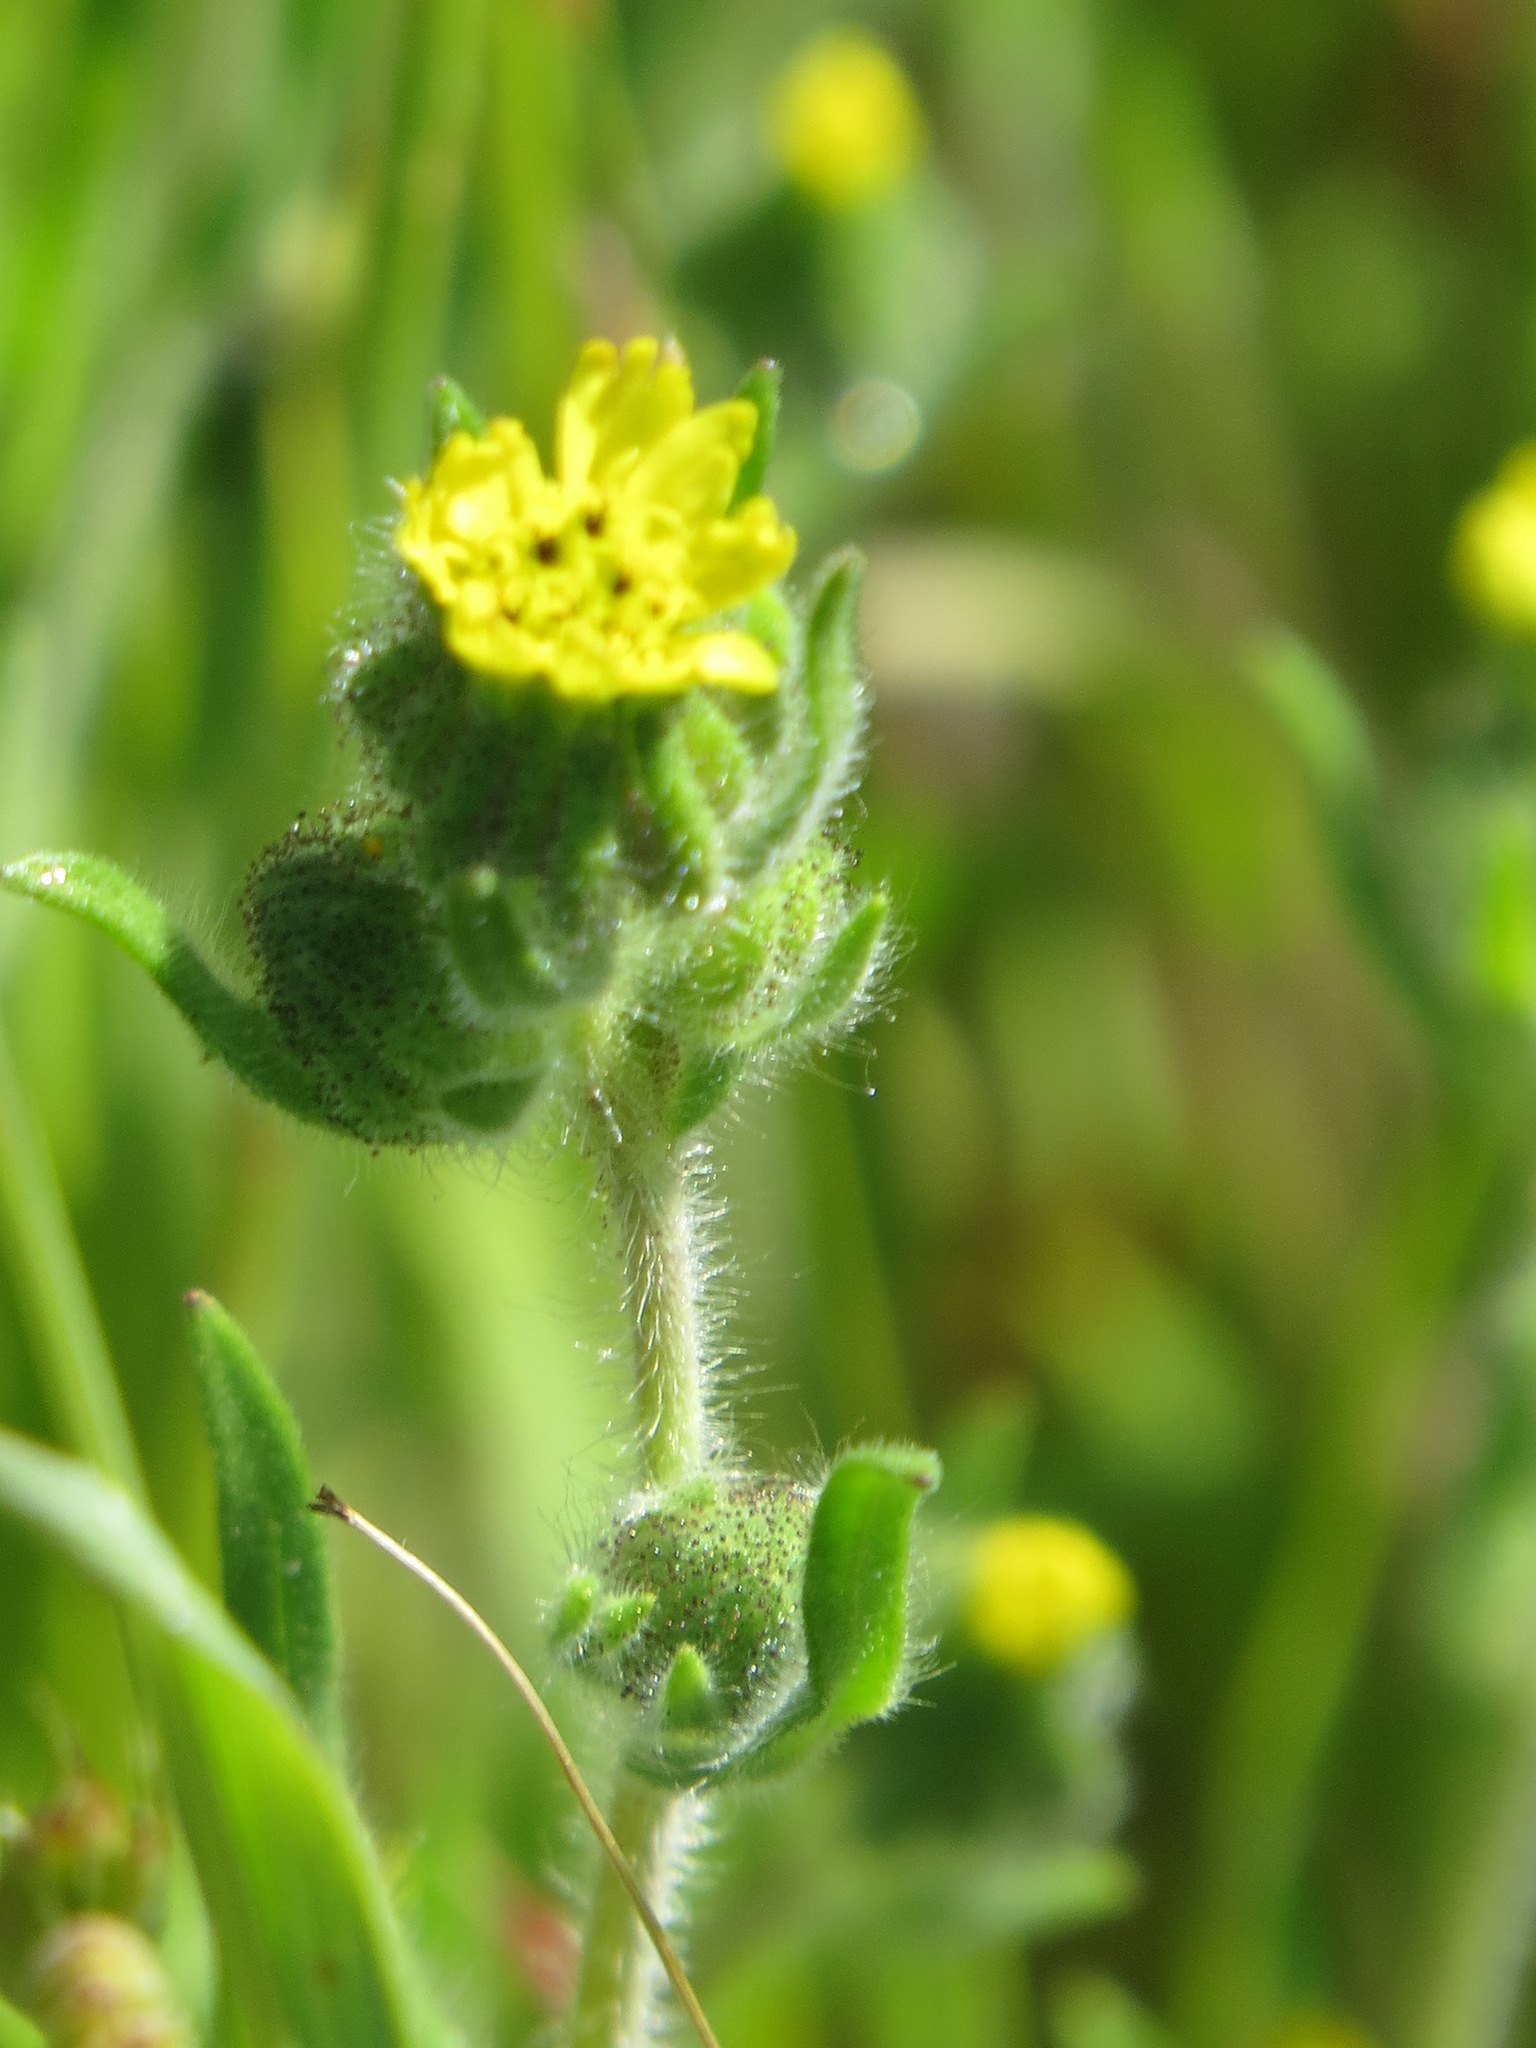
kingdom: Plantae
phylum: Tracheophyta
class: Magnoliopsida
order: Asterales
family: Asteraceae
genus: Madia
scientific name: Madia gracilis
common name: Grassy tarweed
